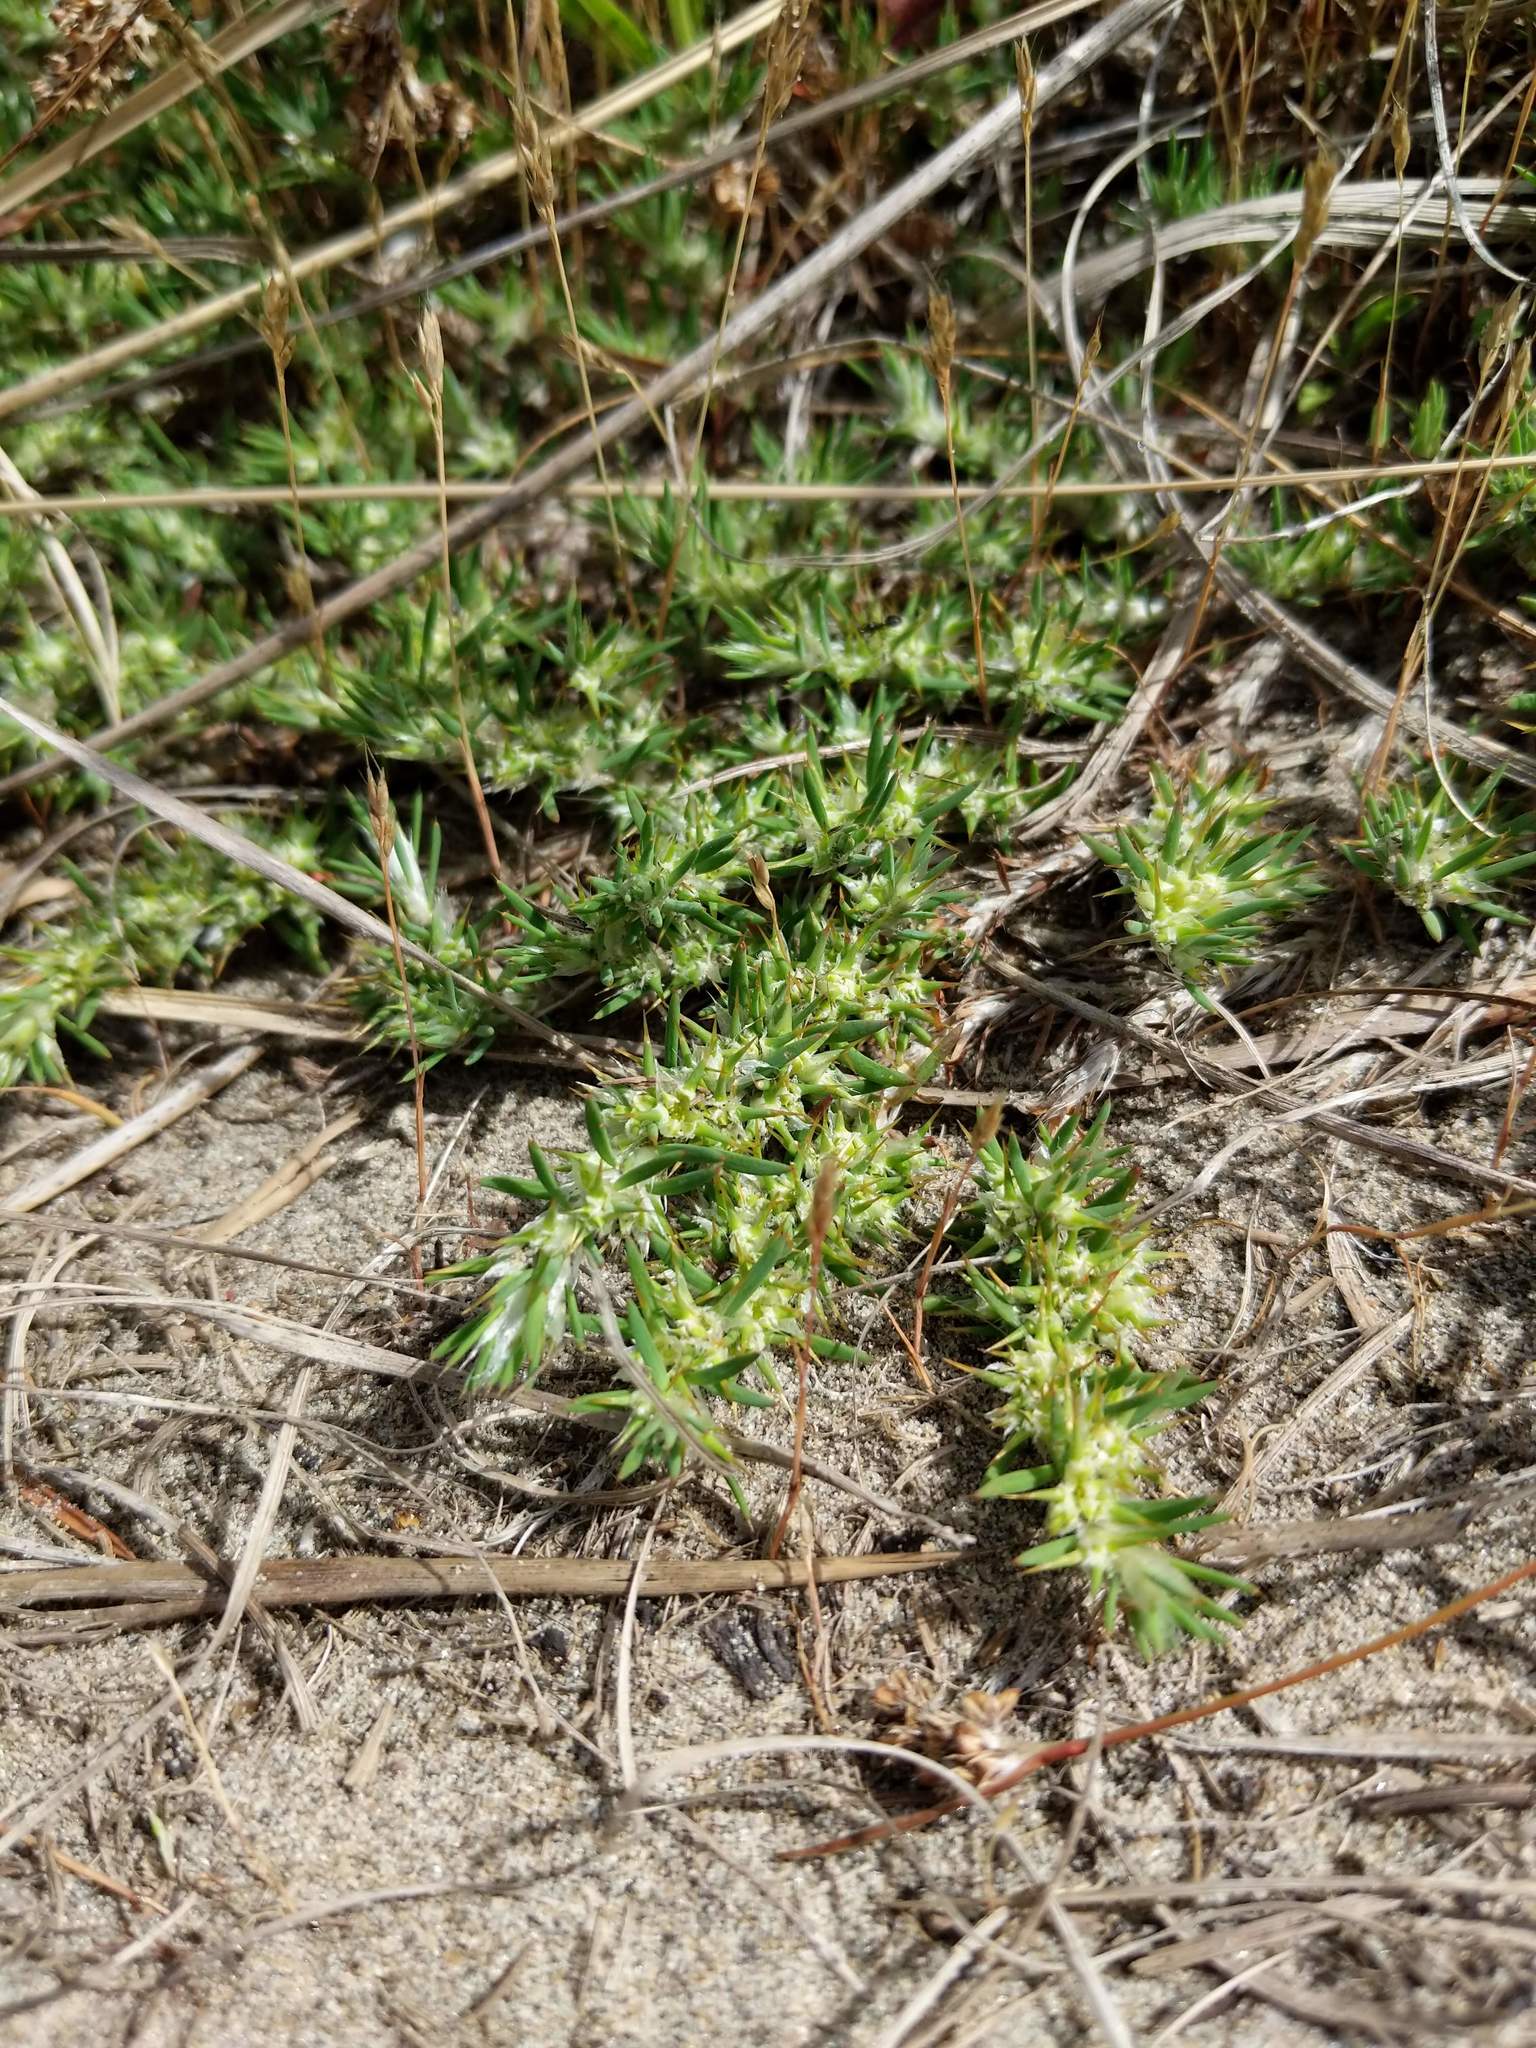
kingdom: Plantae
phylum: Tracheophyta
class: Magnoliopsida
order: Caryophyllales
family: Caryophyllaceae
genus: Cardionema
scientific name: Cardionema ramosissima
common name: Sandcarpet
